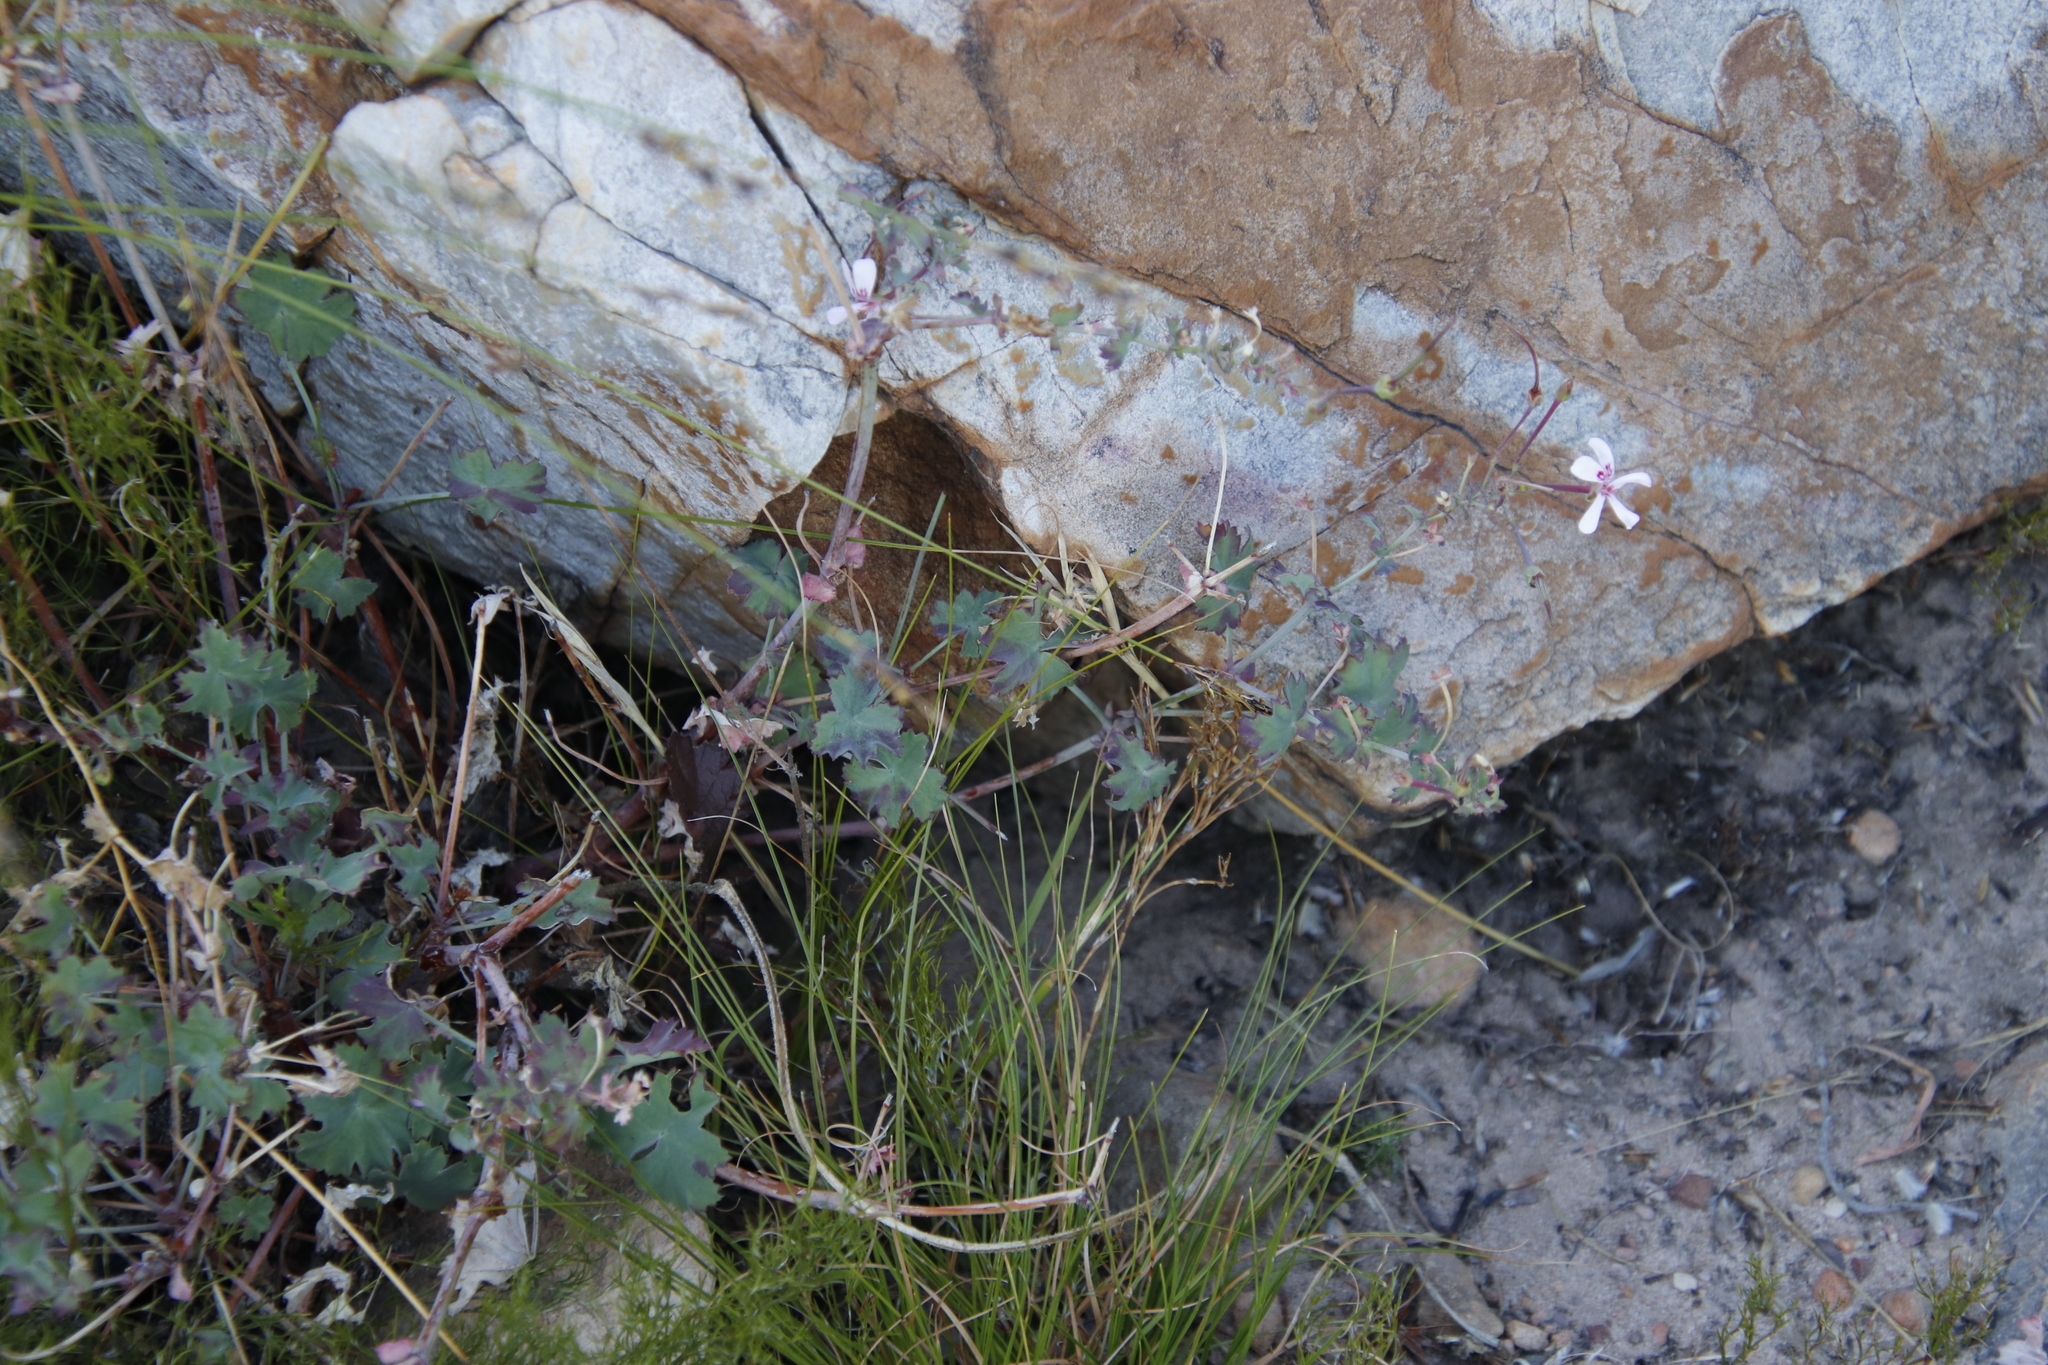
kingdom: Plantae
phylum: Tracheophyta
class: Magnoliopsida
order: Geraniales
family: Geraniaceae
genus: Pelargonium
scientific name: Pelargonium patulum
